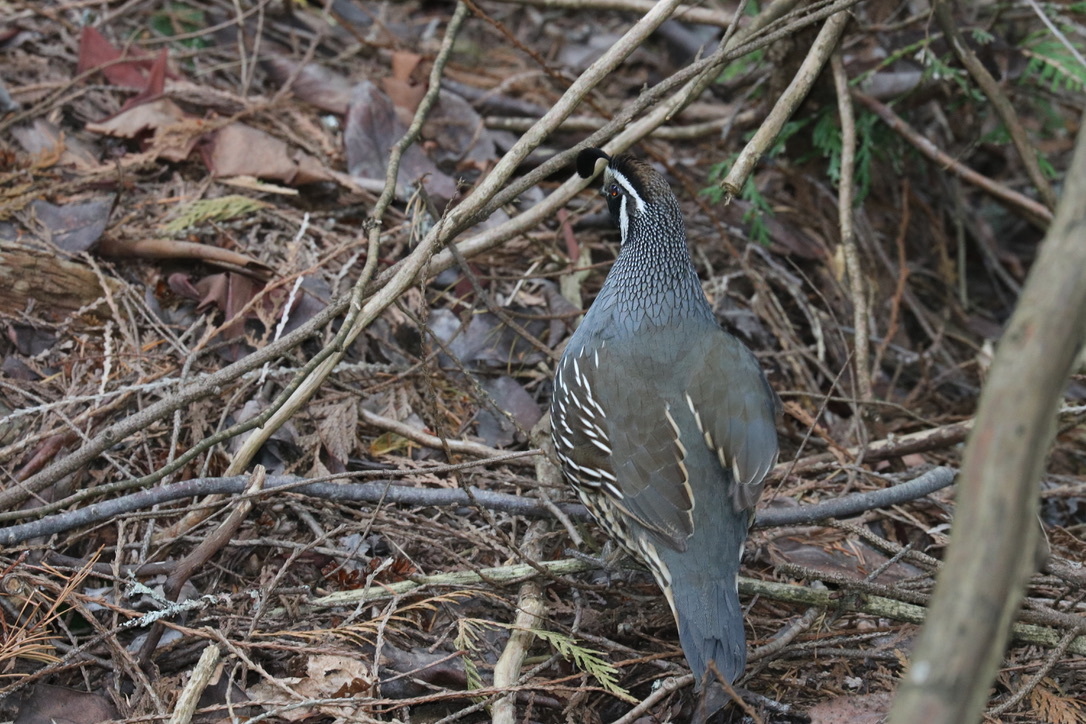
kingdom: Animalia
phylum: Chordata
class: Aves
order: Galliformes
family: Odontophoridae
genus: Callipepla
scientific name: Callipepla californica
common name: California quail
